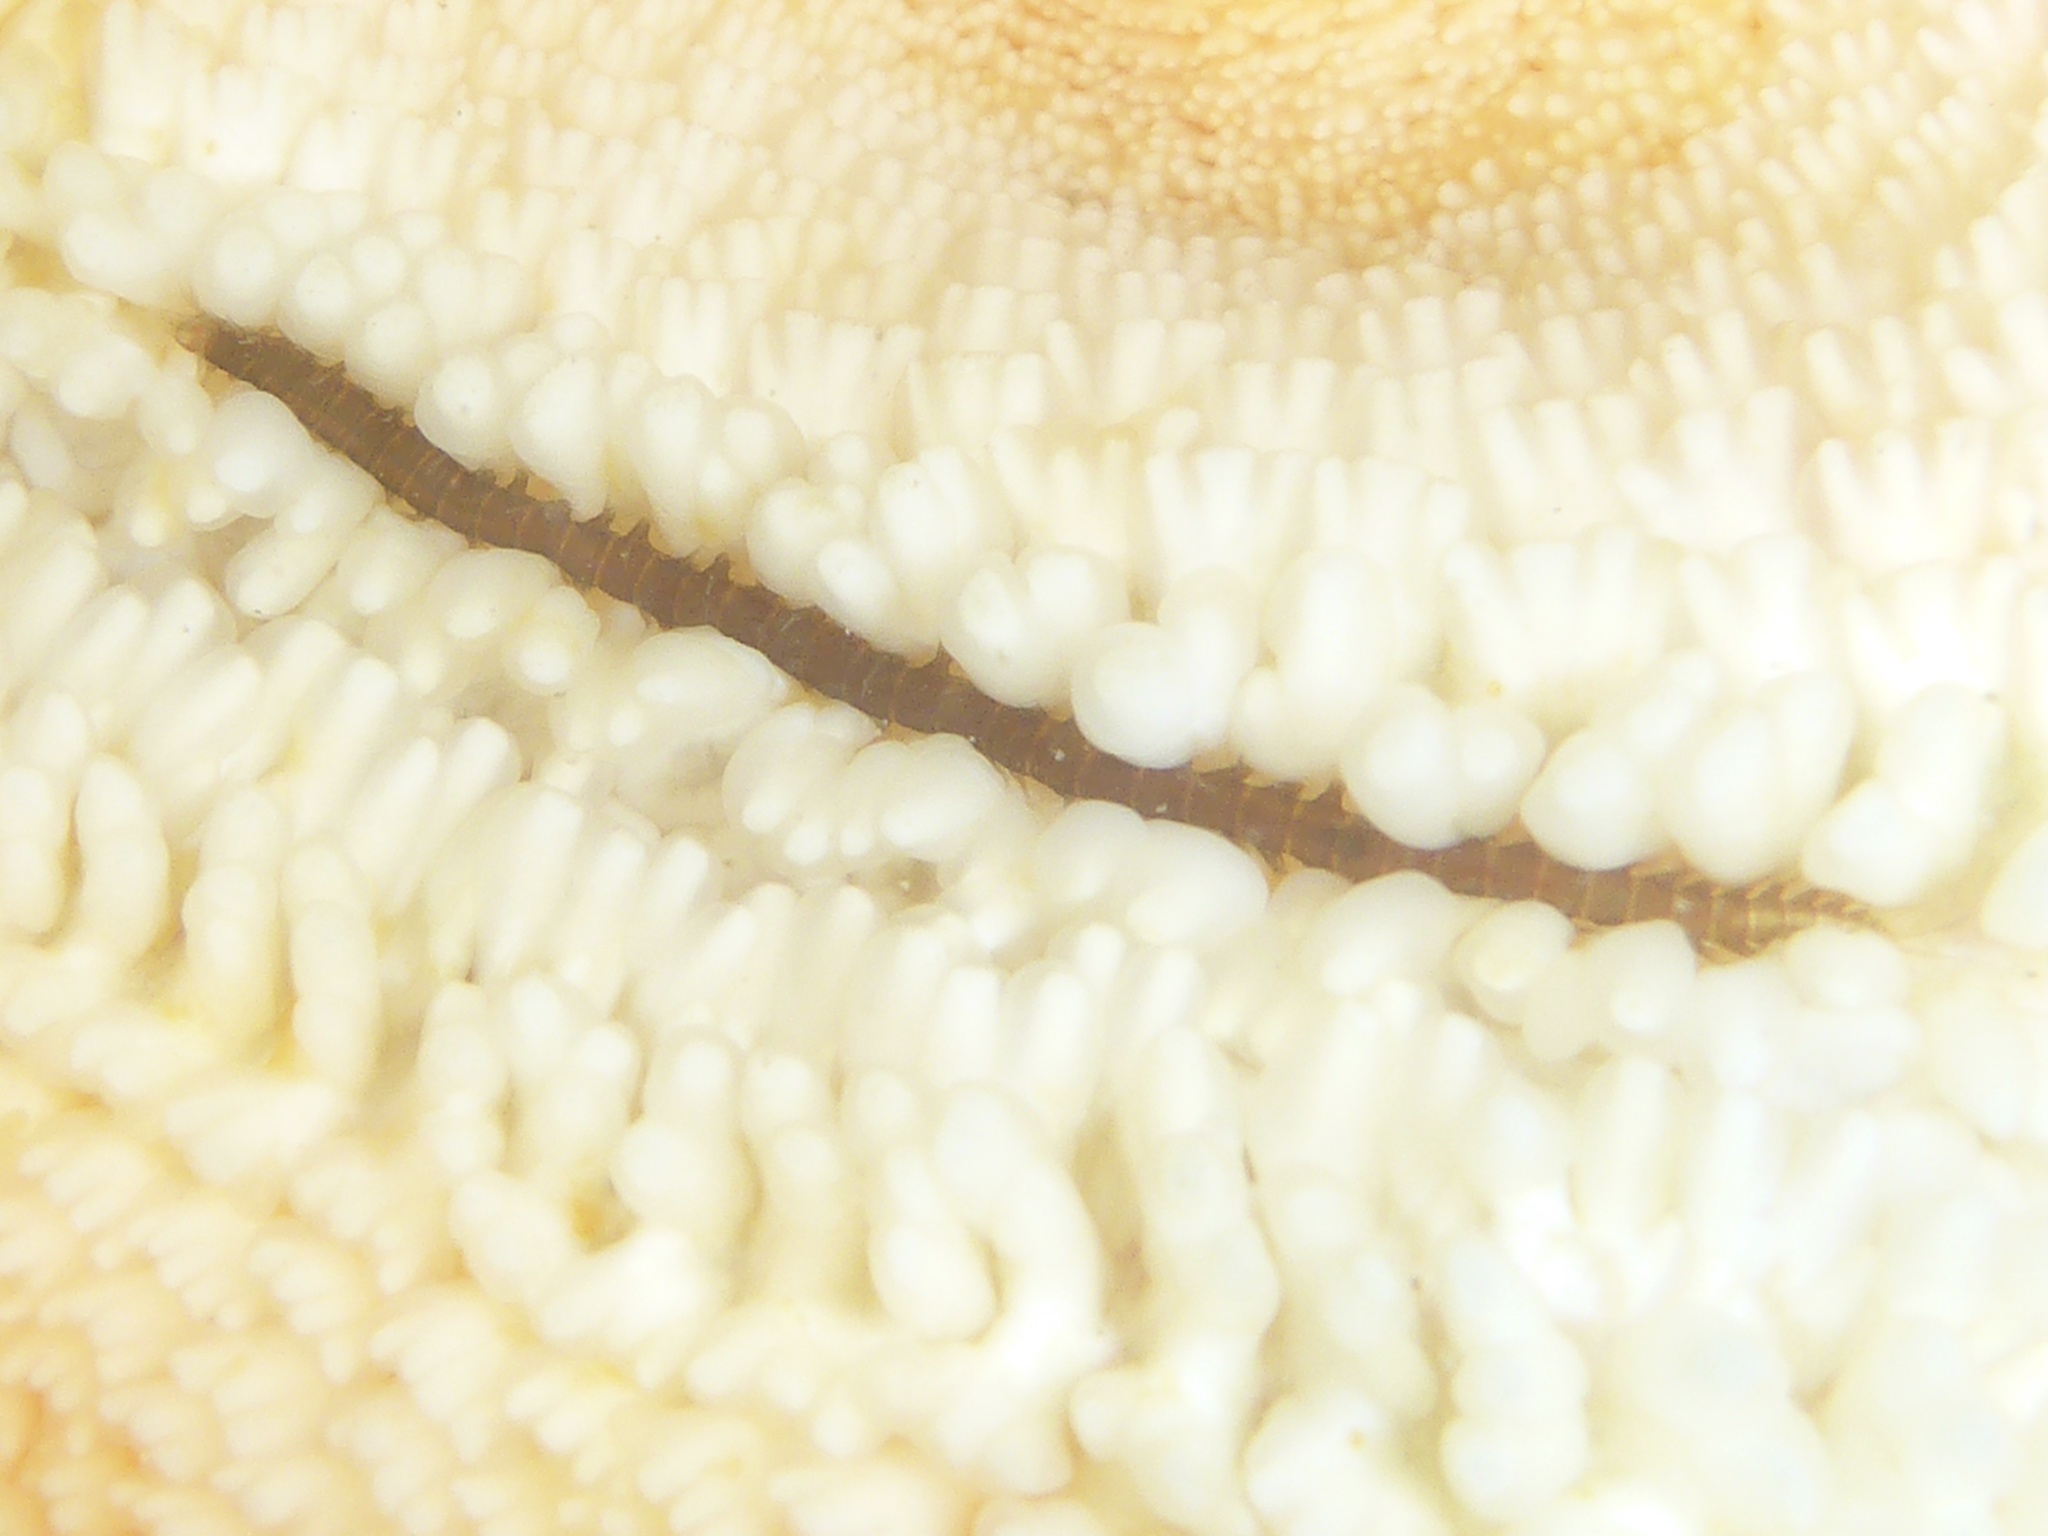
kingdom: Animalia
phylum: Annelida
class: Polychaeta
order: Phyllodocida
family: Hesionidae
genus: Oxydromus
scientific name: Oxydromus pugettensis
